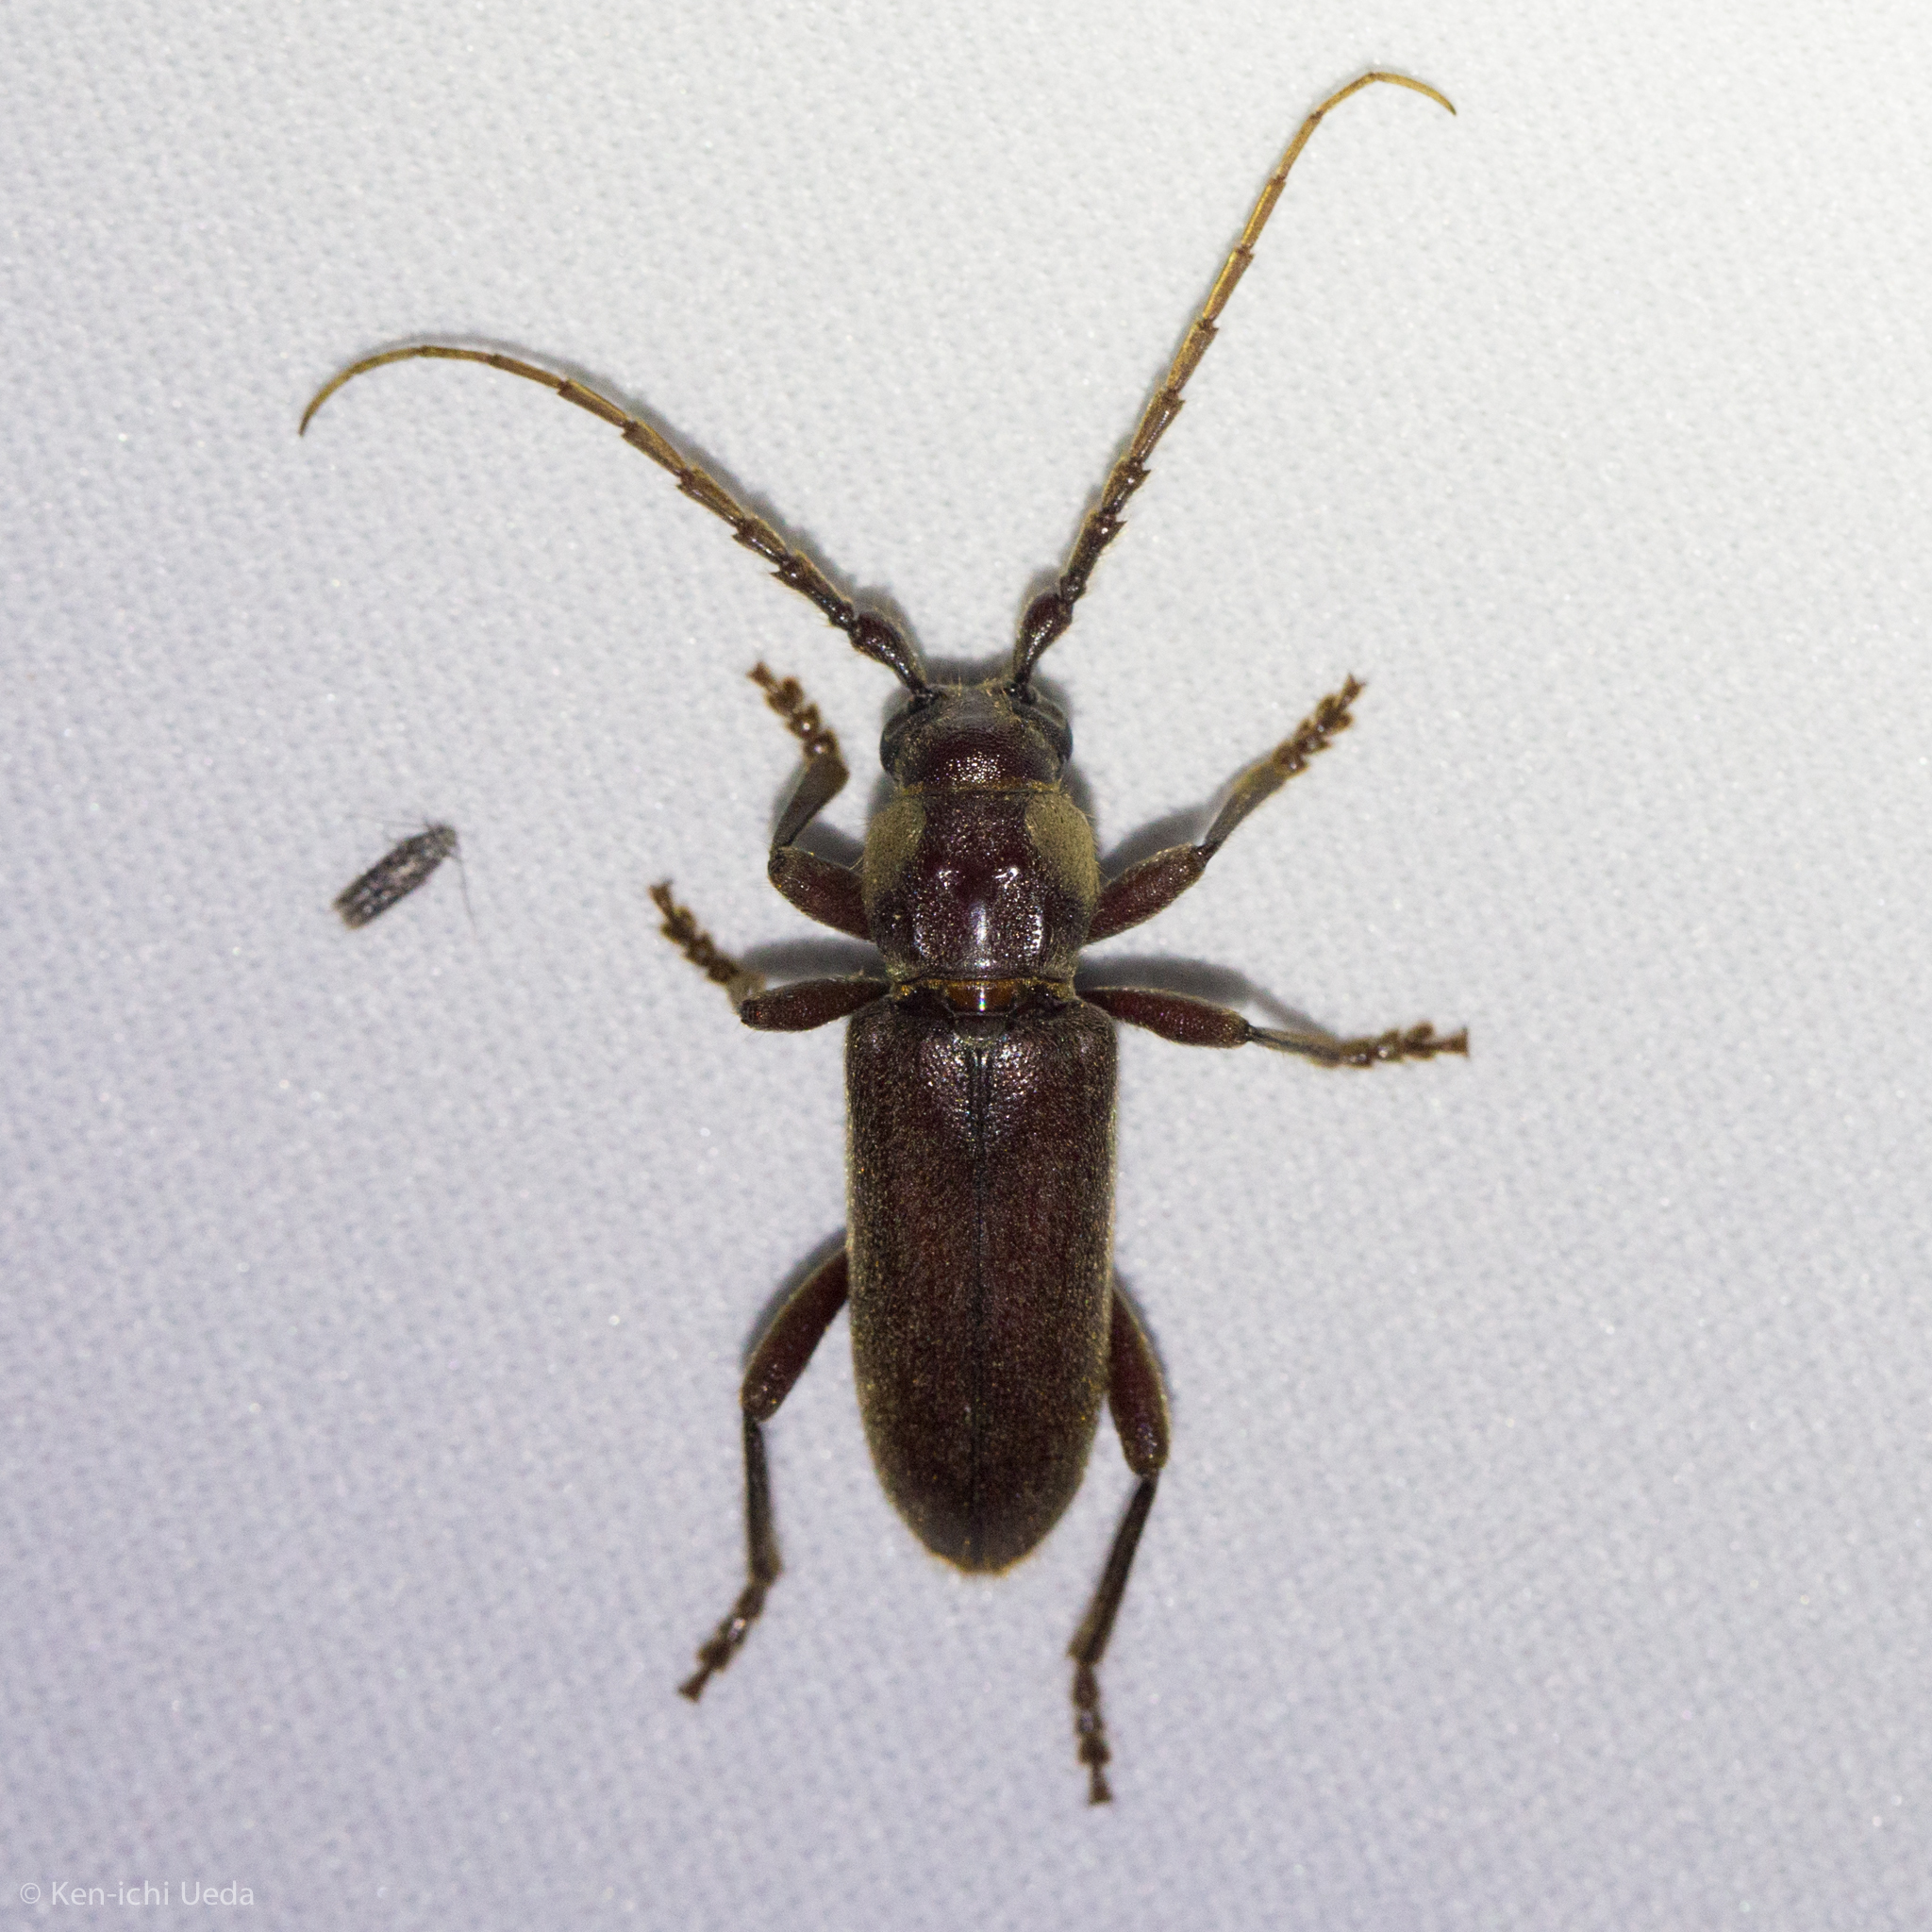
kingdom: Animalia
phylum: Arthropoda
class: Insecta
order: Coleoptera
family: Cerambycidae
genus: Eustromula
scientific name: Eustromula validum
